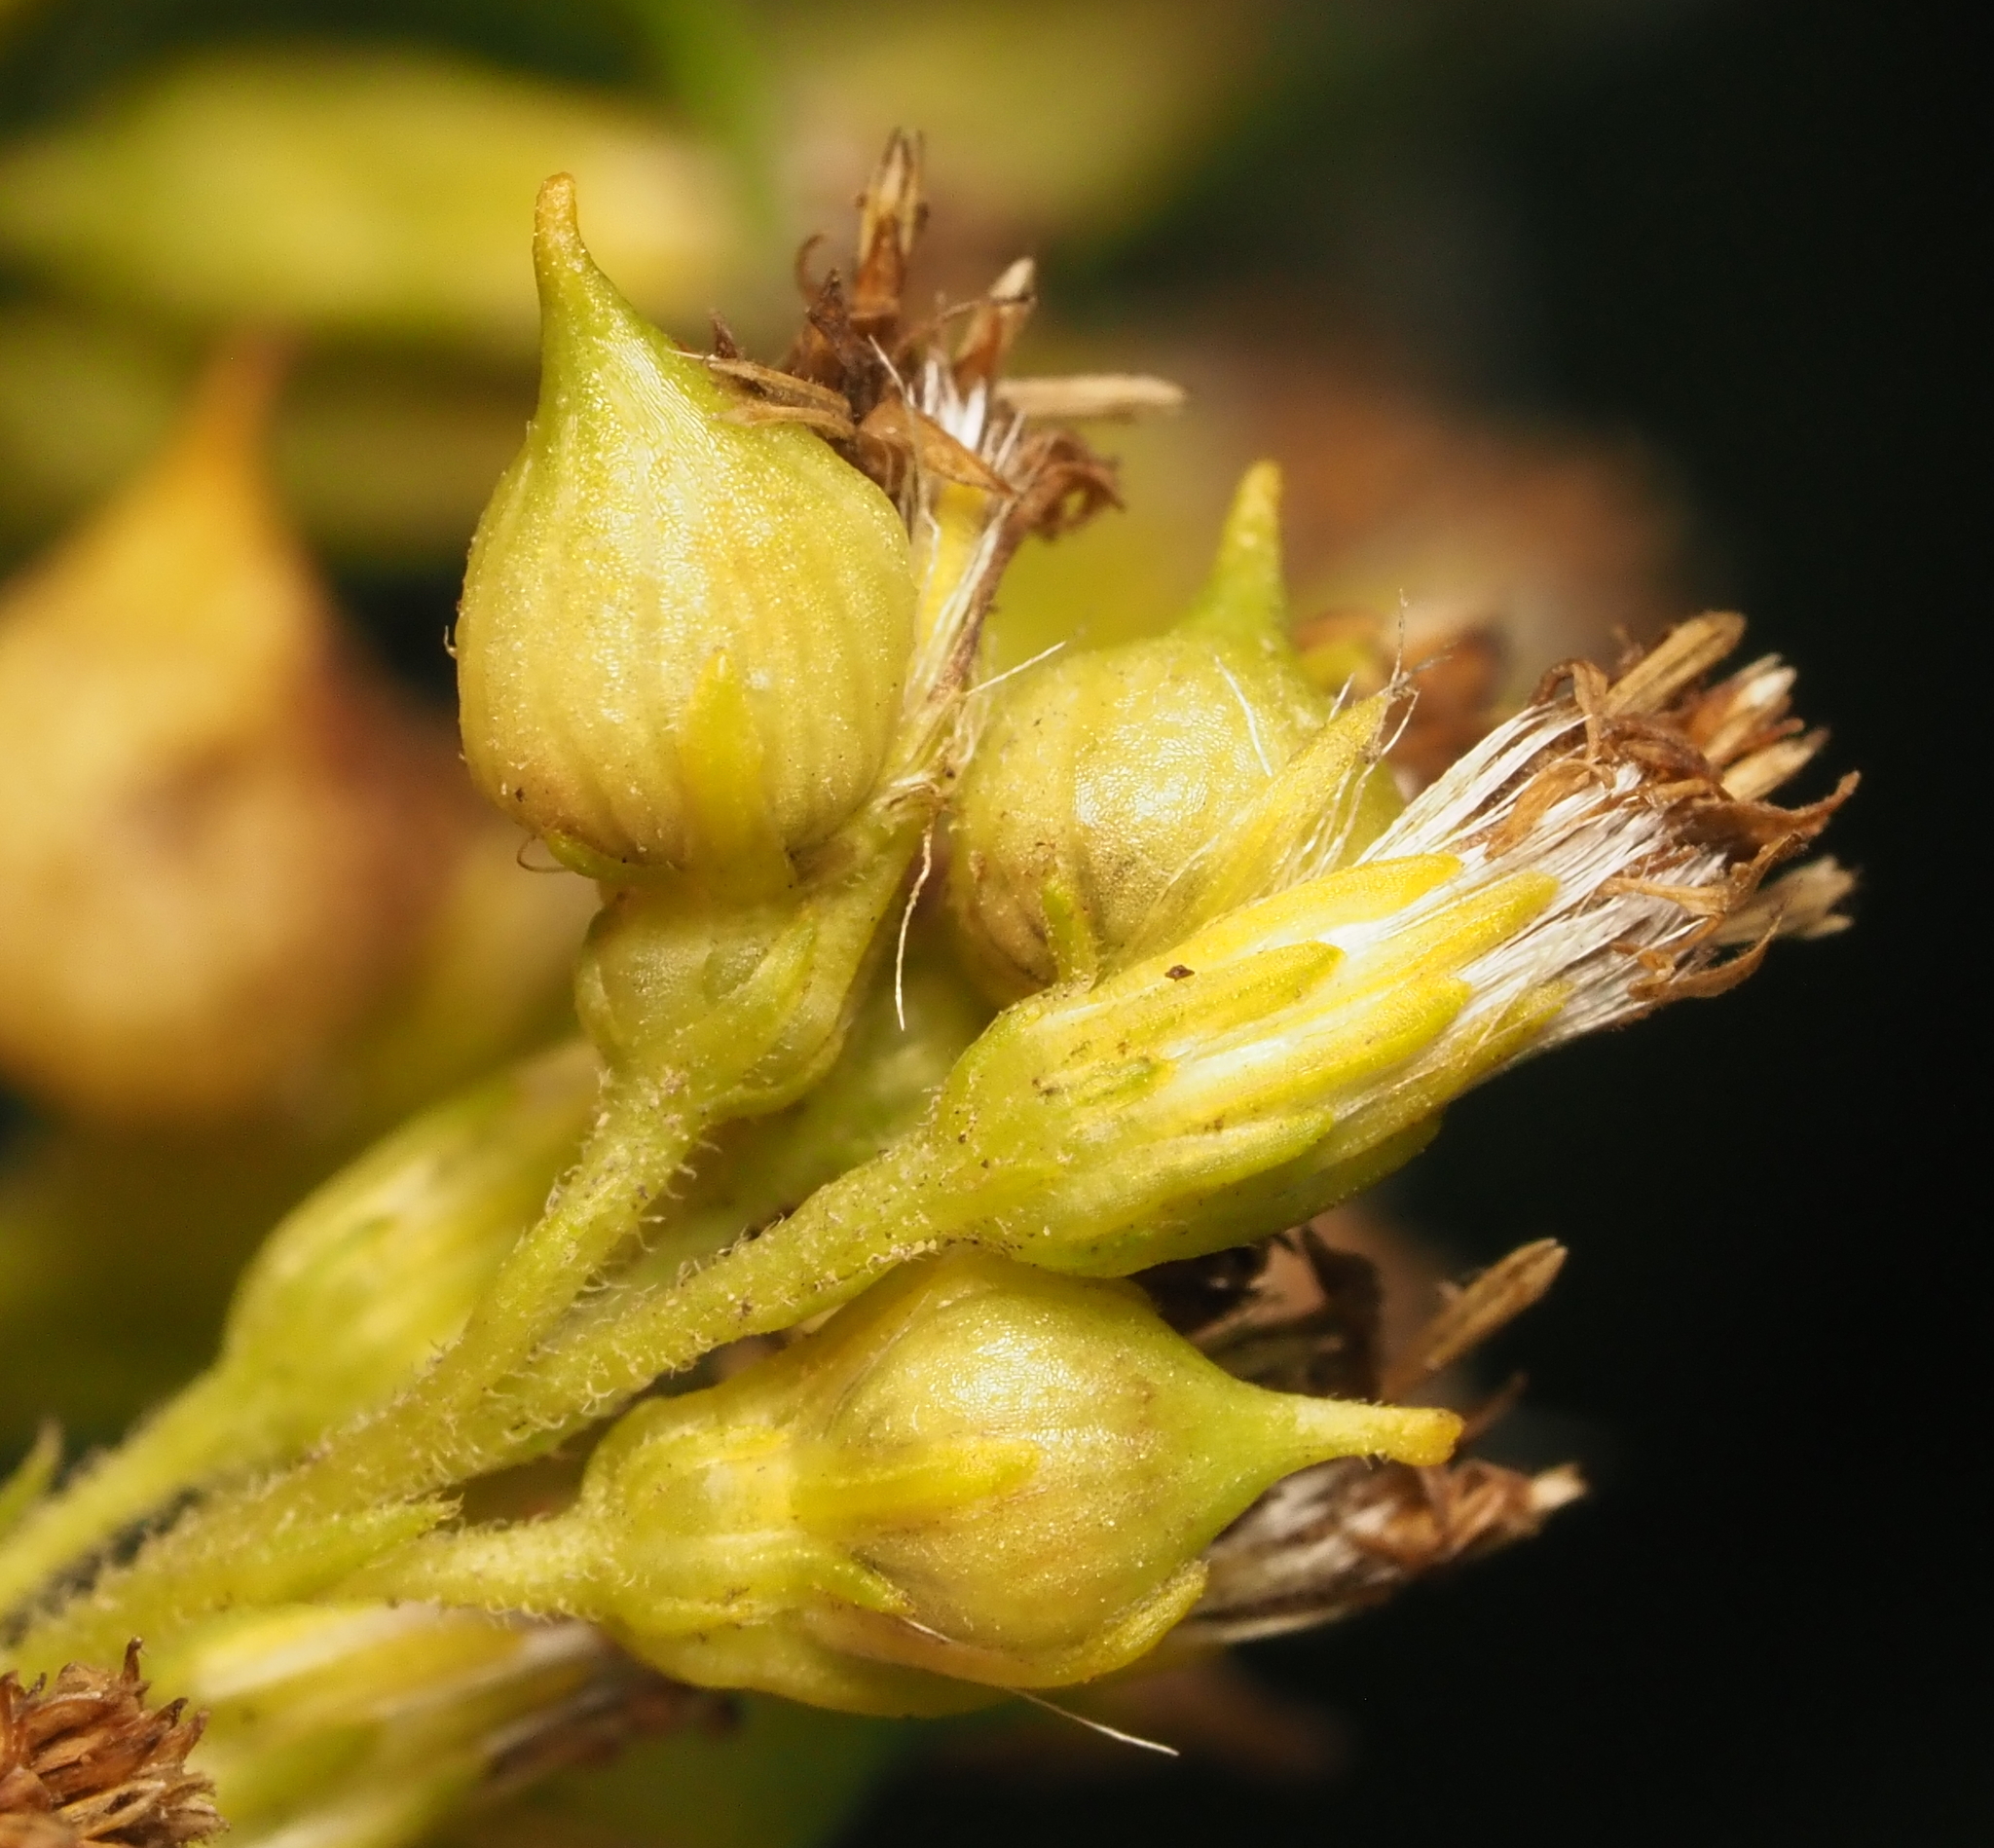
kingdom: Animalia
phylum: Arthropoda
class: Insecta
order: Diptera
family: Cecidomyiidae
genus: Schizomyia
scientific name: Schizomyia racemicola
